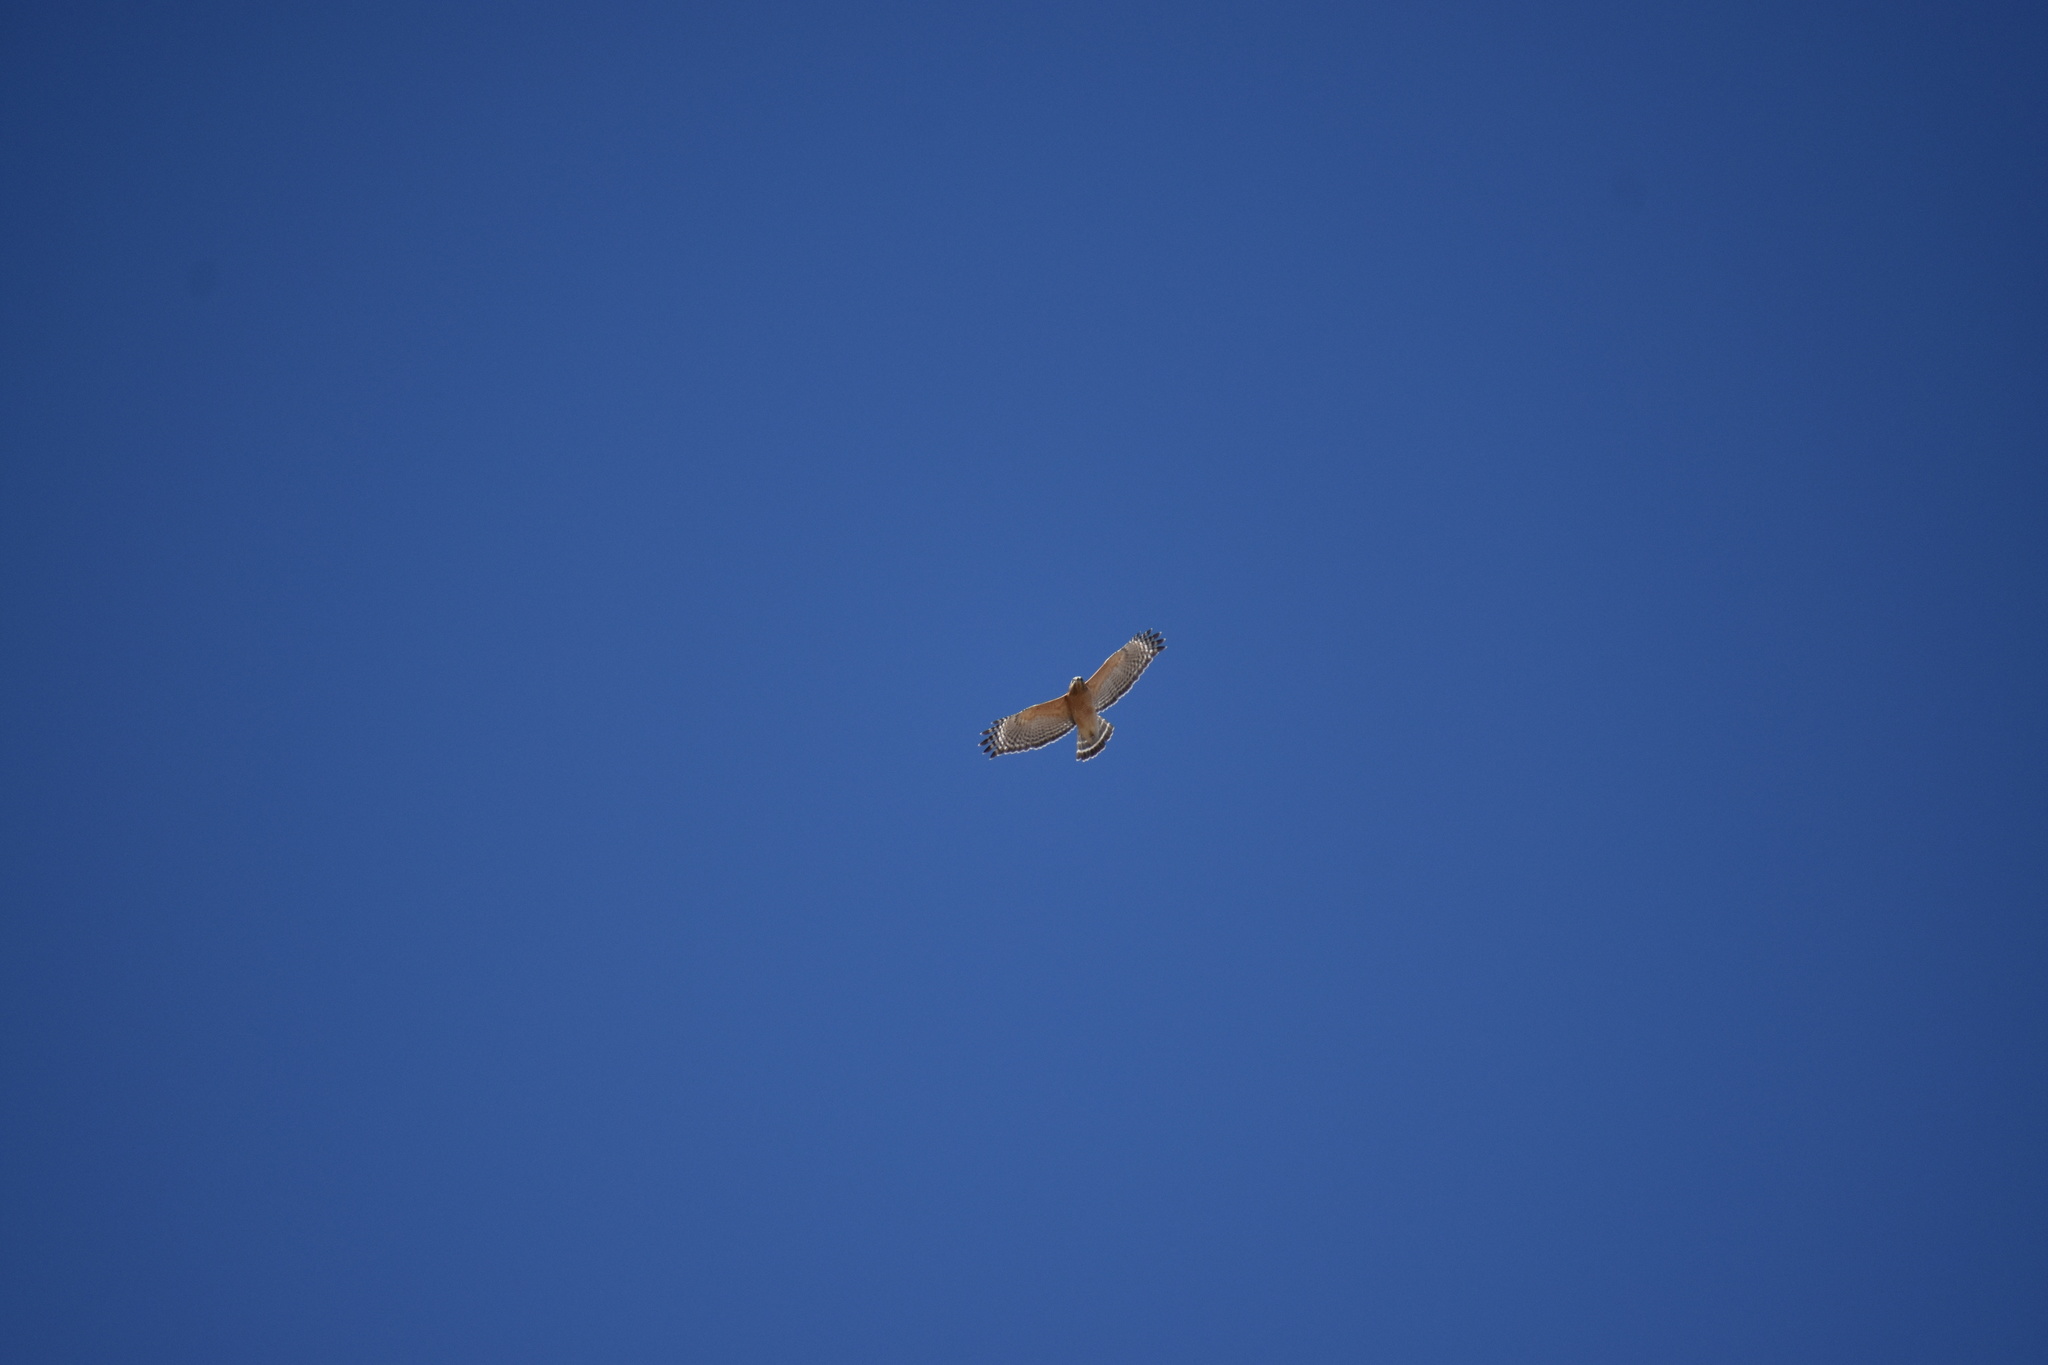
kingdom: Animalia
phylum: Chordata
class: Aves
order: Accipitriformes
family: Accipitridae
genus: Buteo
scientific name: Buteo lineatus
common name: Red-shouldered hawk
